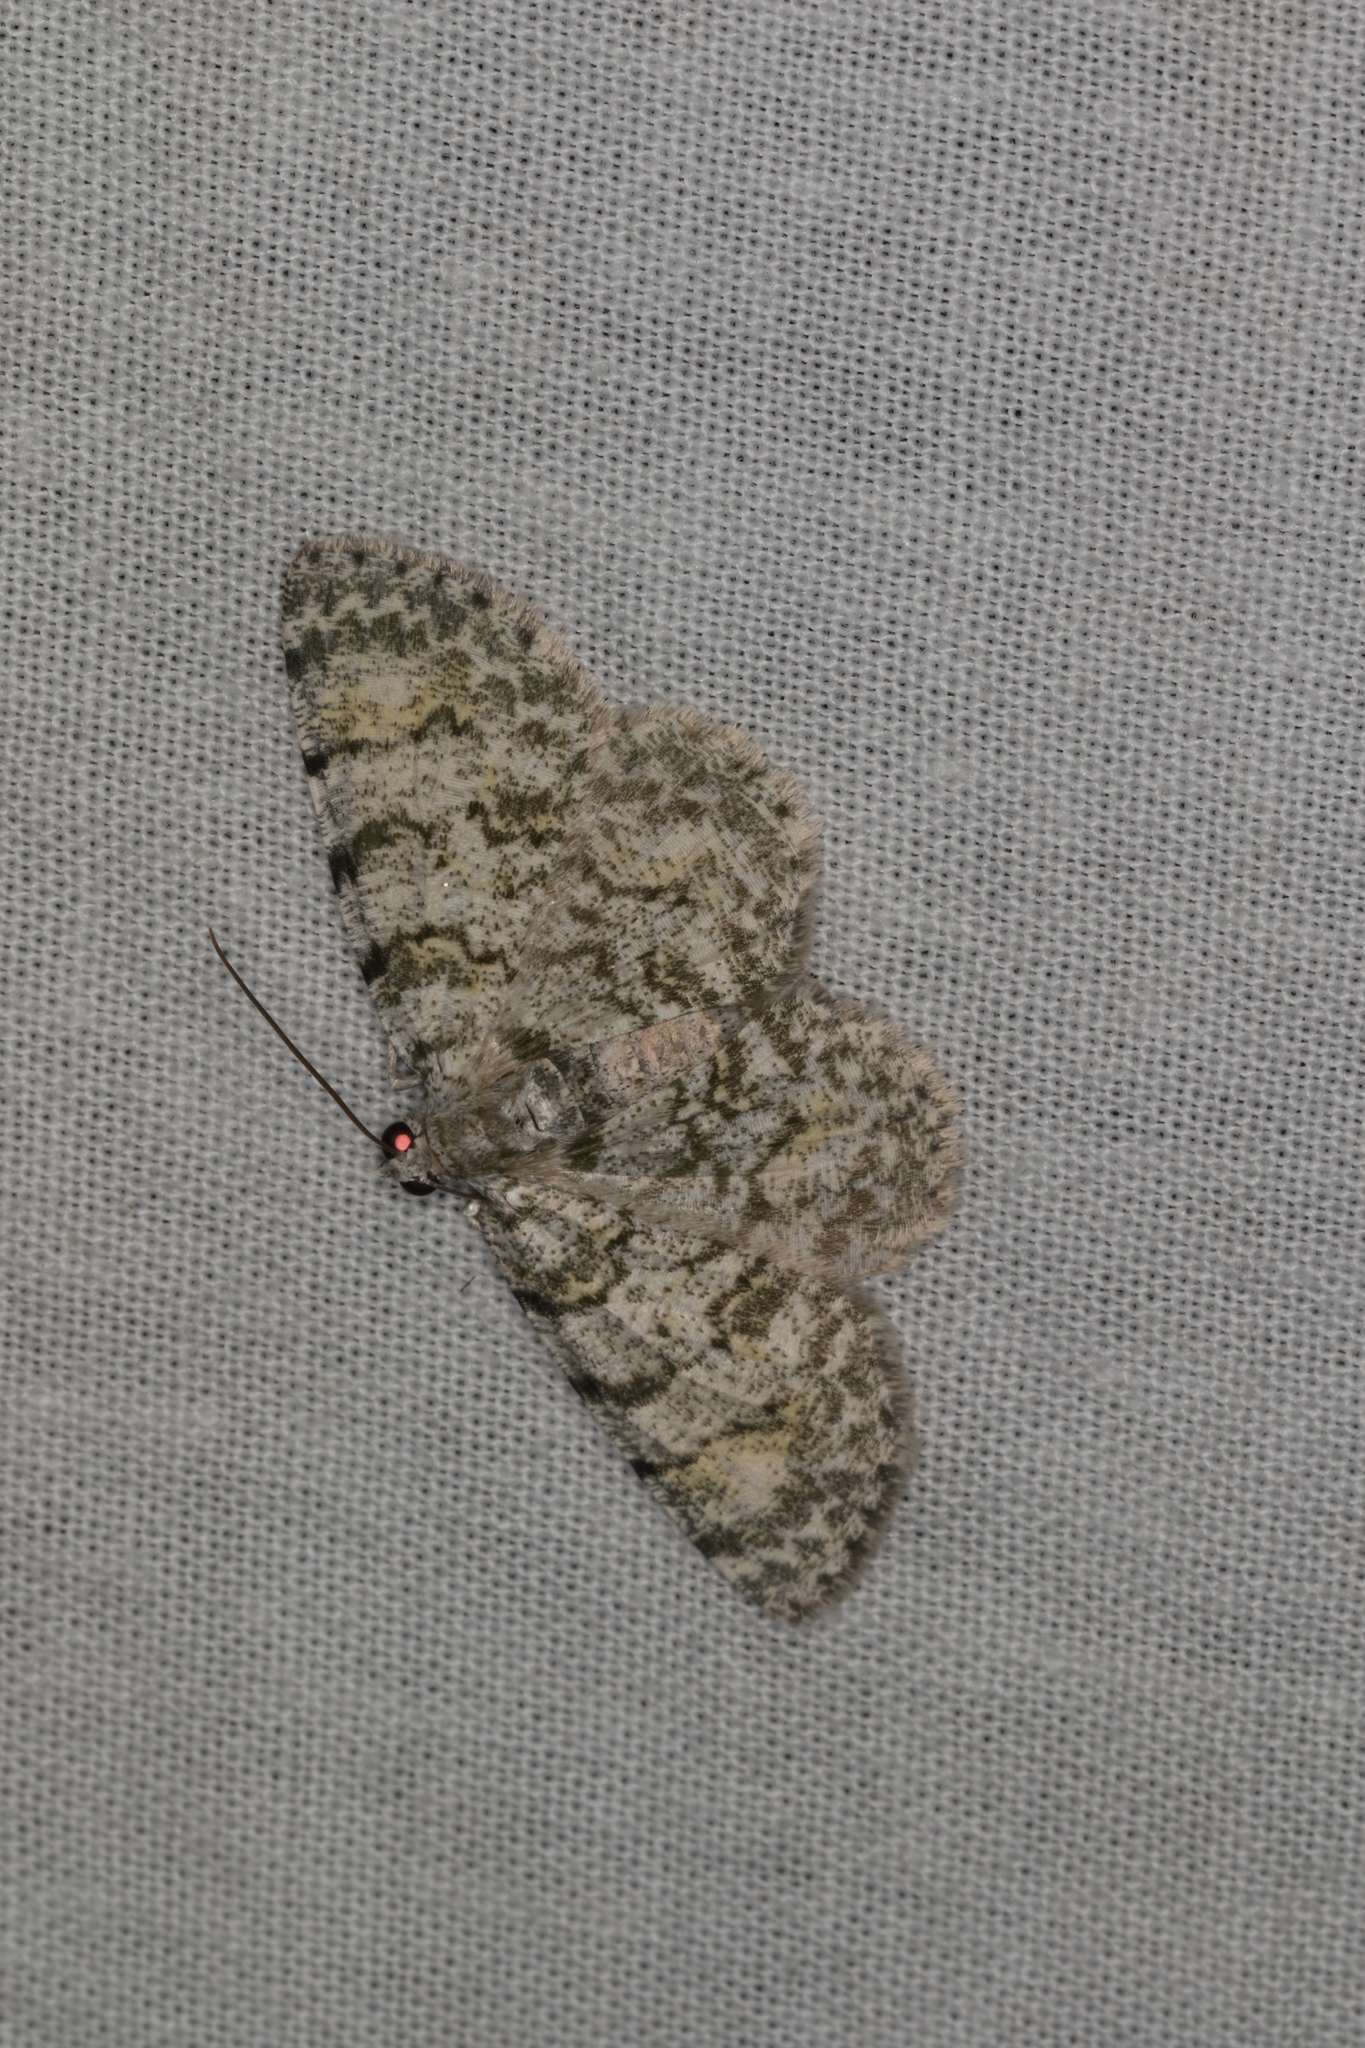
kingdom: Animalia
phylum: Arthropoda
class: Insecta
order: Lepidoptera
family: Geometridae
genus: Dyscheralcis
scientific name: Dyscheralcis crimnodes
